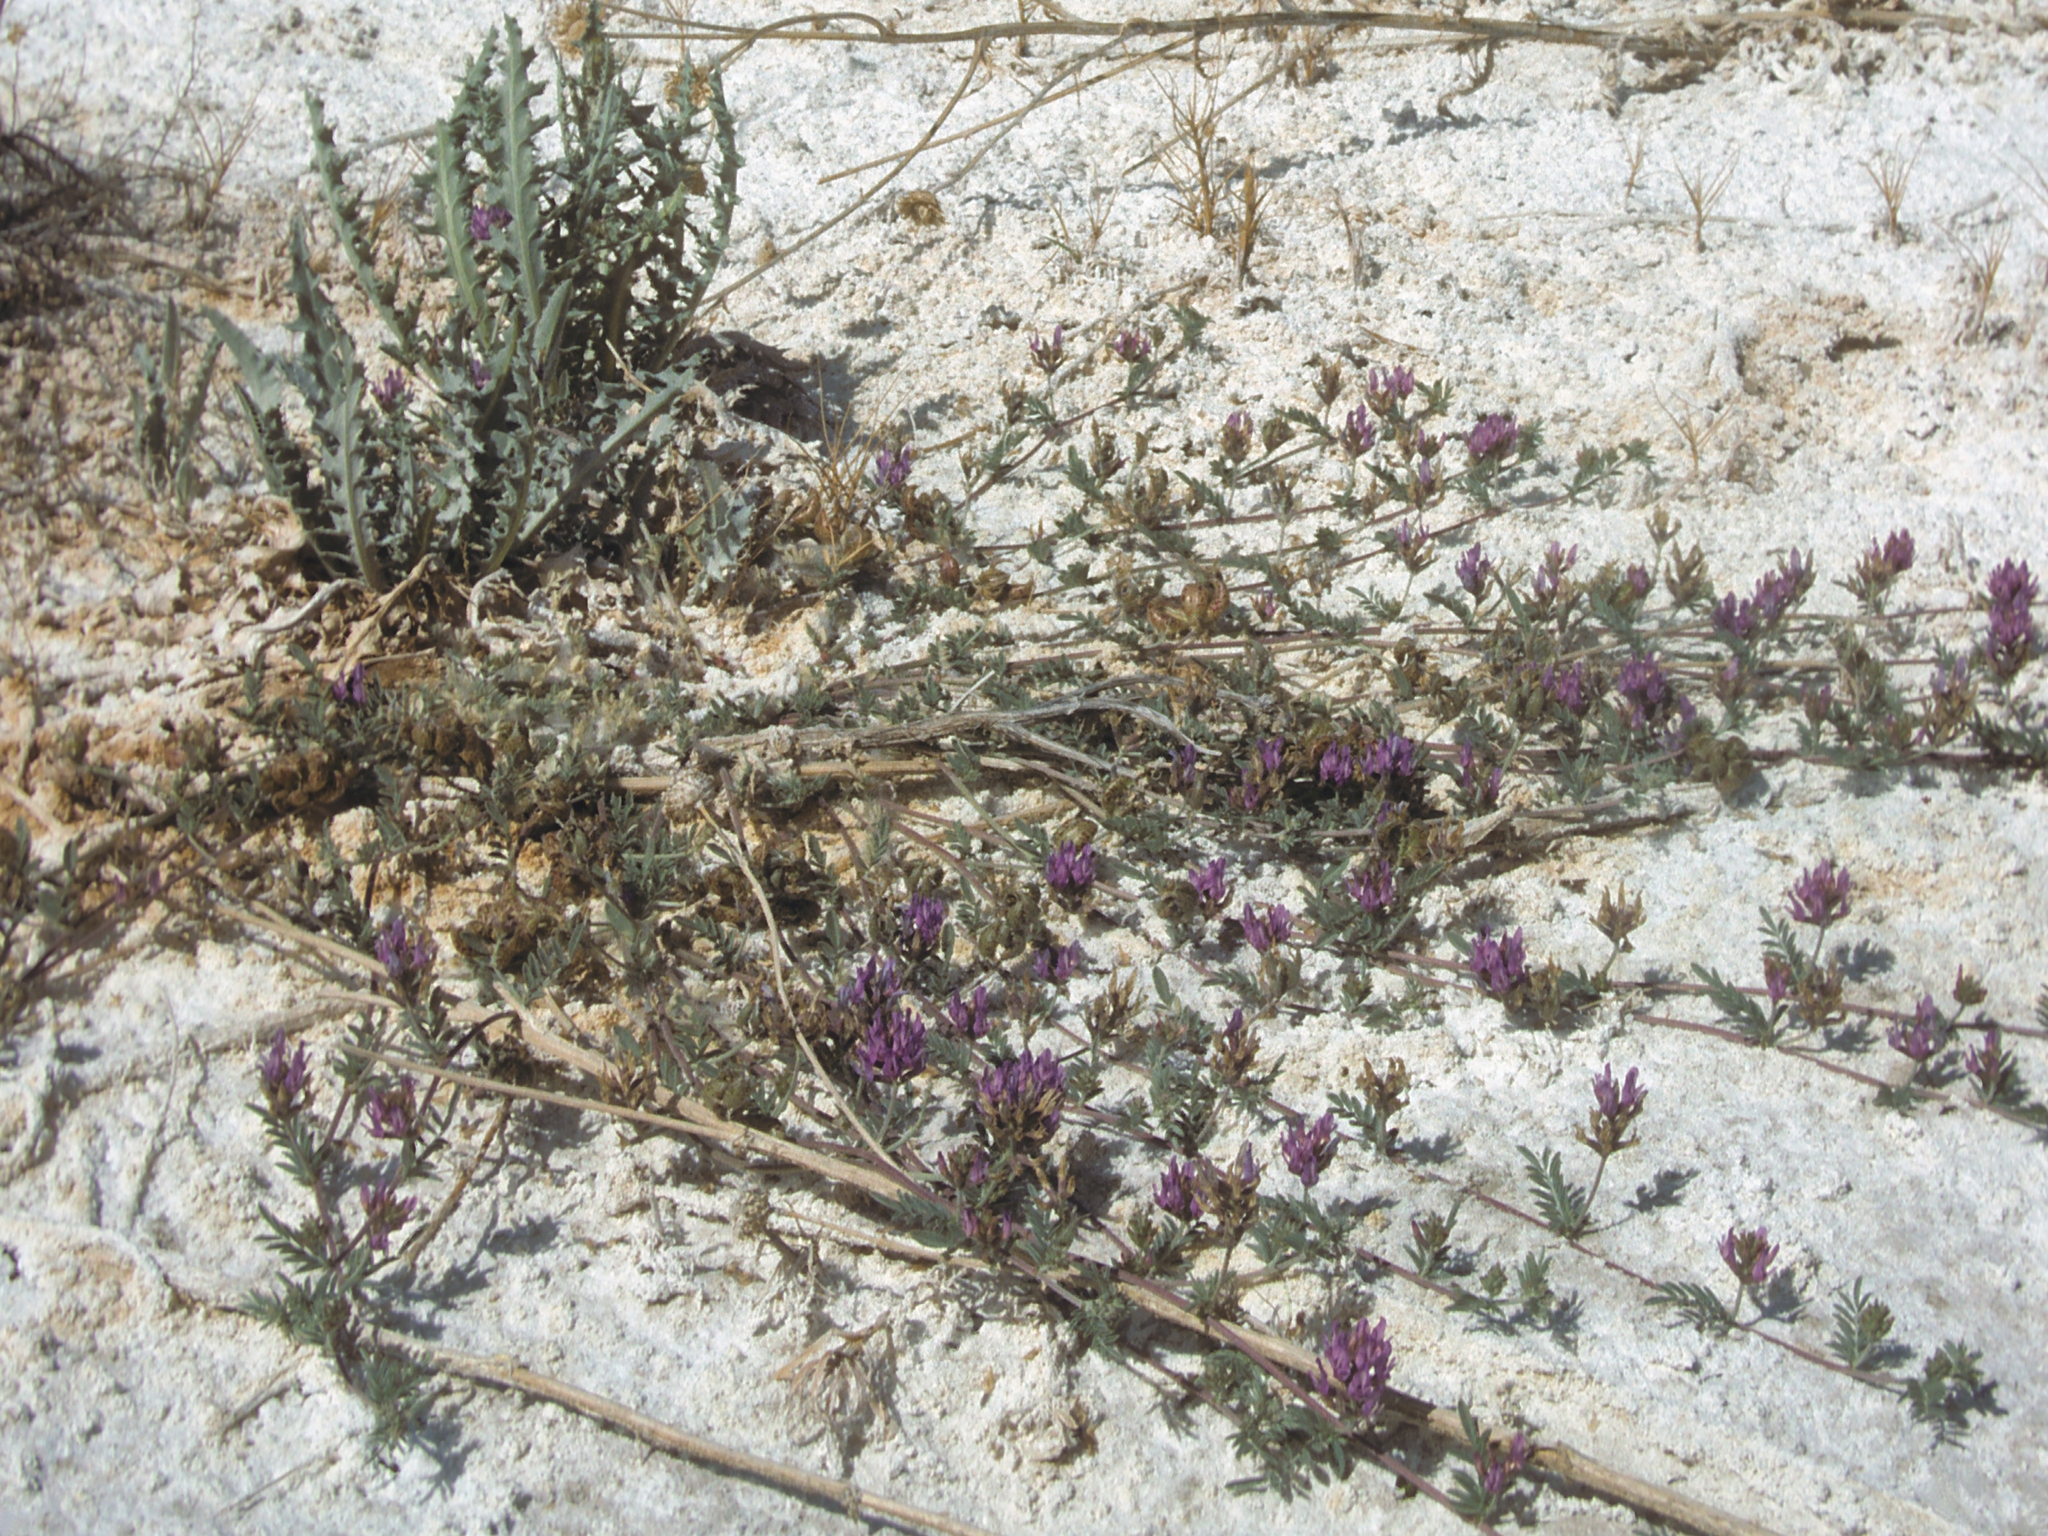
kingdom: Plantae
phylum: Tracheophyta
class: Magnoliopsida
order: Fabales
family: Fabaceae
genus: Astragalus
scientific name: Astragalus lentiginosus
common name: Freckled milkvetch
